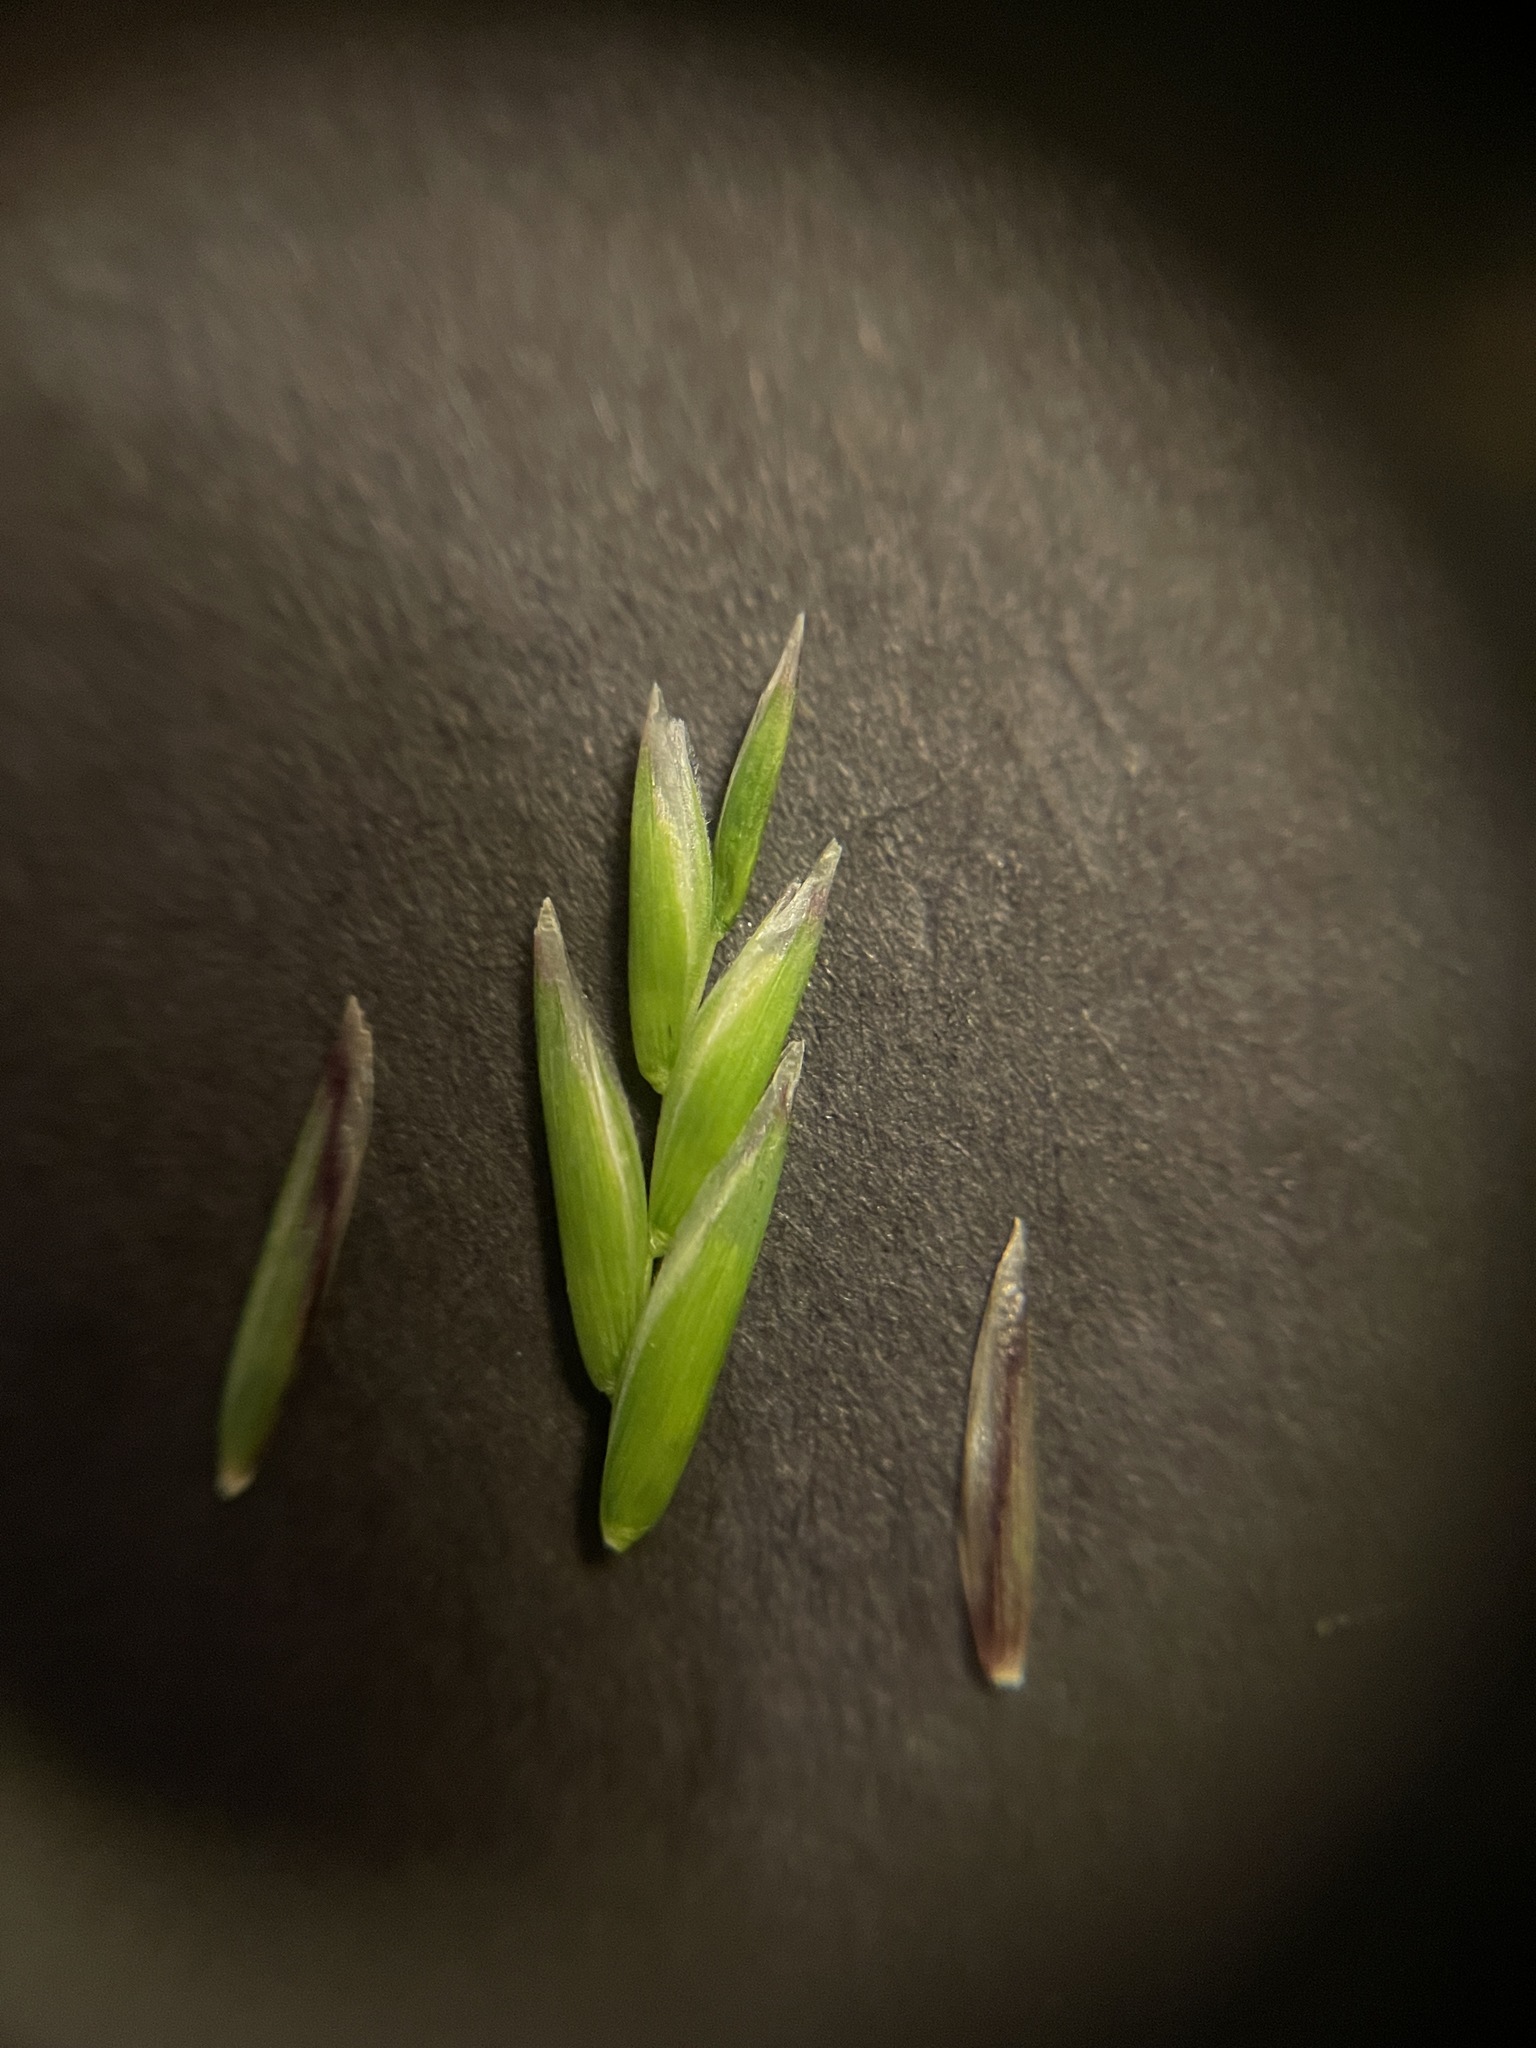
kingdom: Plantae
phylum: Tracheophyta
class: Liliopsida
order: Poales
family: Poaceae
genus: Melica
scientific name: Melica harfordii
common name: Harford's melic
